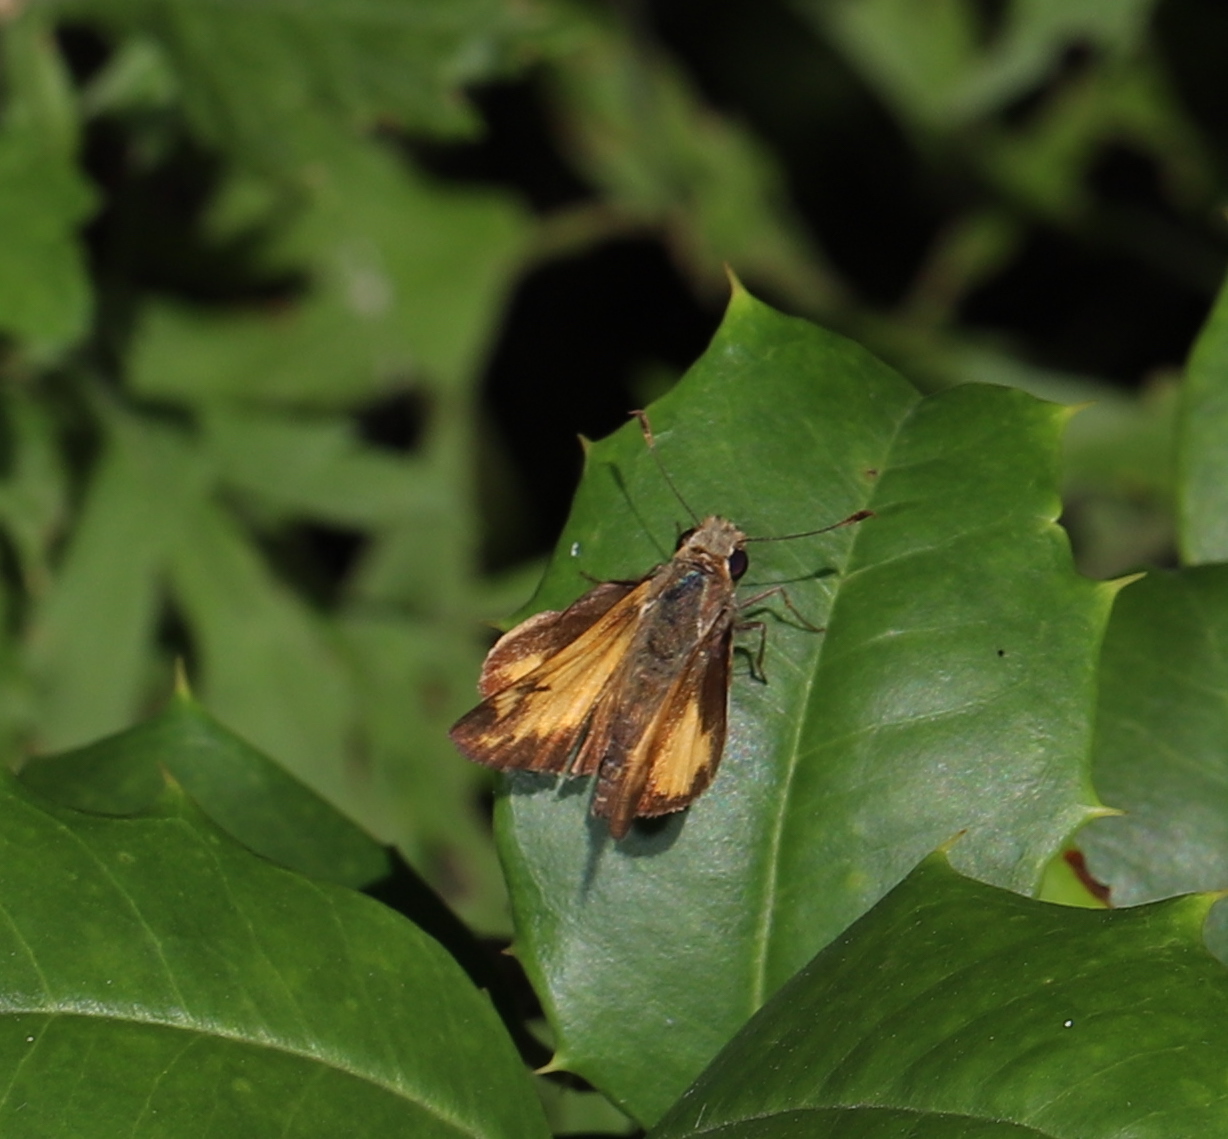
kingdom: Animalia
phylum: Arthropoda
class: Insecta
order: Lepidoptera
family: Hesperiidae
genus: Lon
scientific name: Lon zabulon
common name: Zabulon skipper
